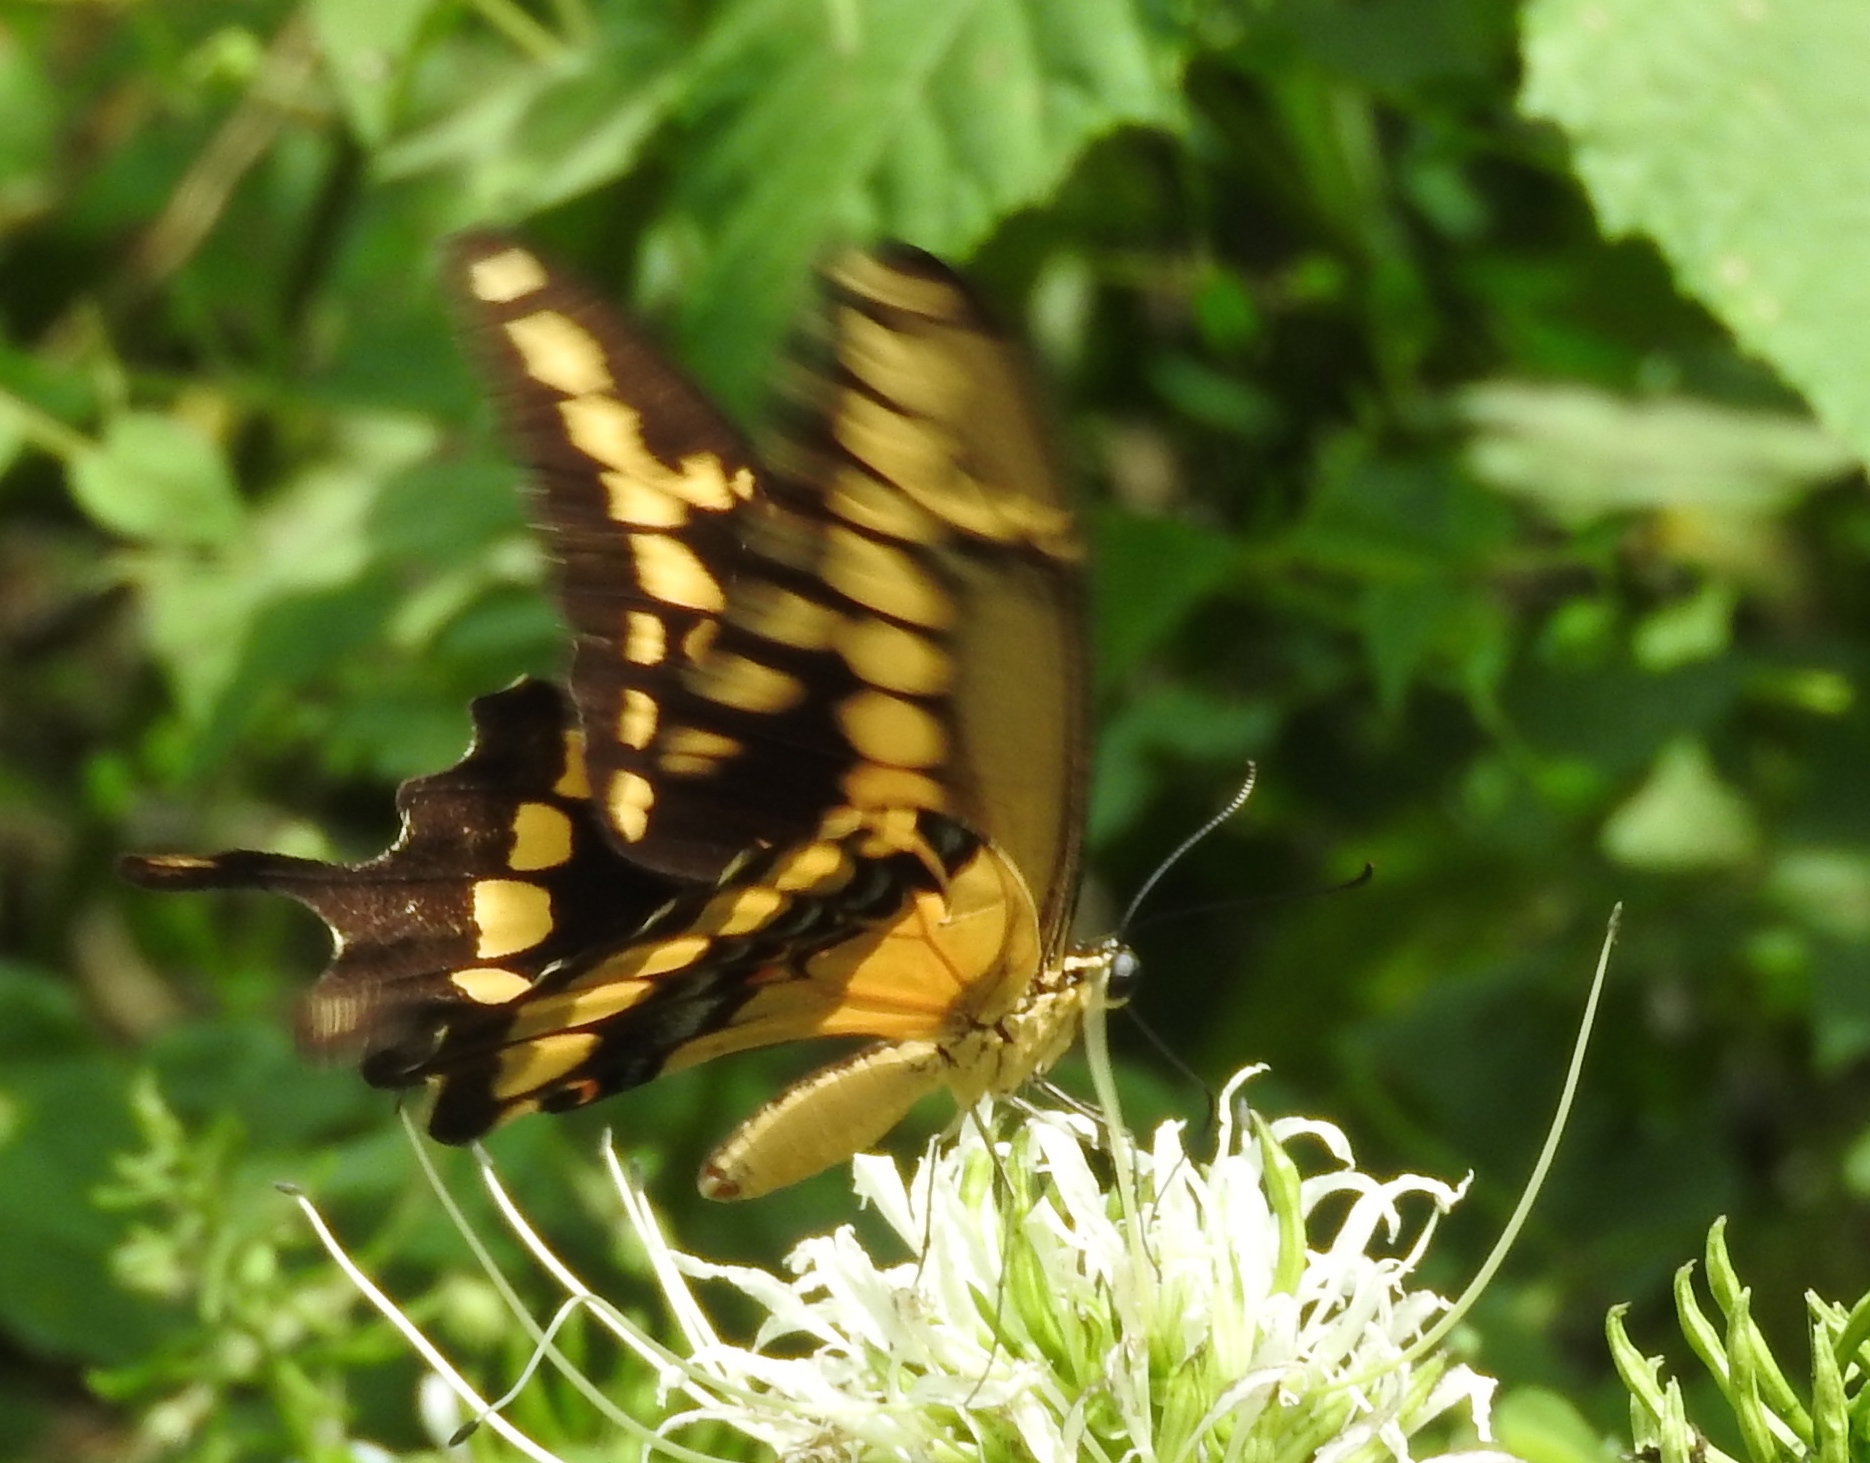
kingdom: Animalia
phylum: Arthropoda
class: Insecta
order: Lepidoptera
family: Papilionidae
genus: Papilio
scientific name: Papilio rumiko
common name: Western giant swallowtail
